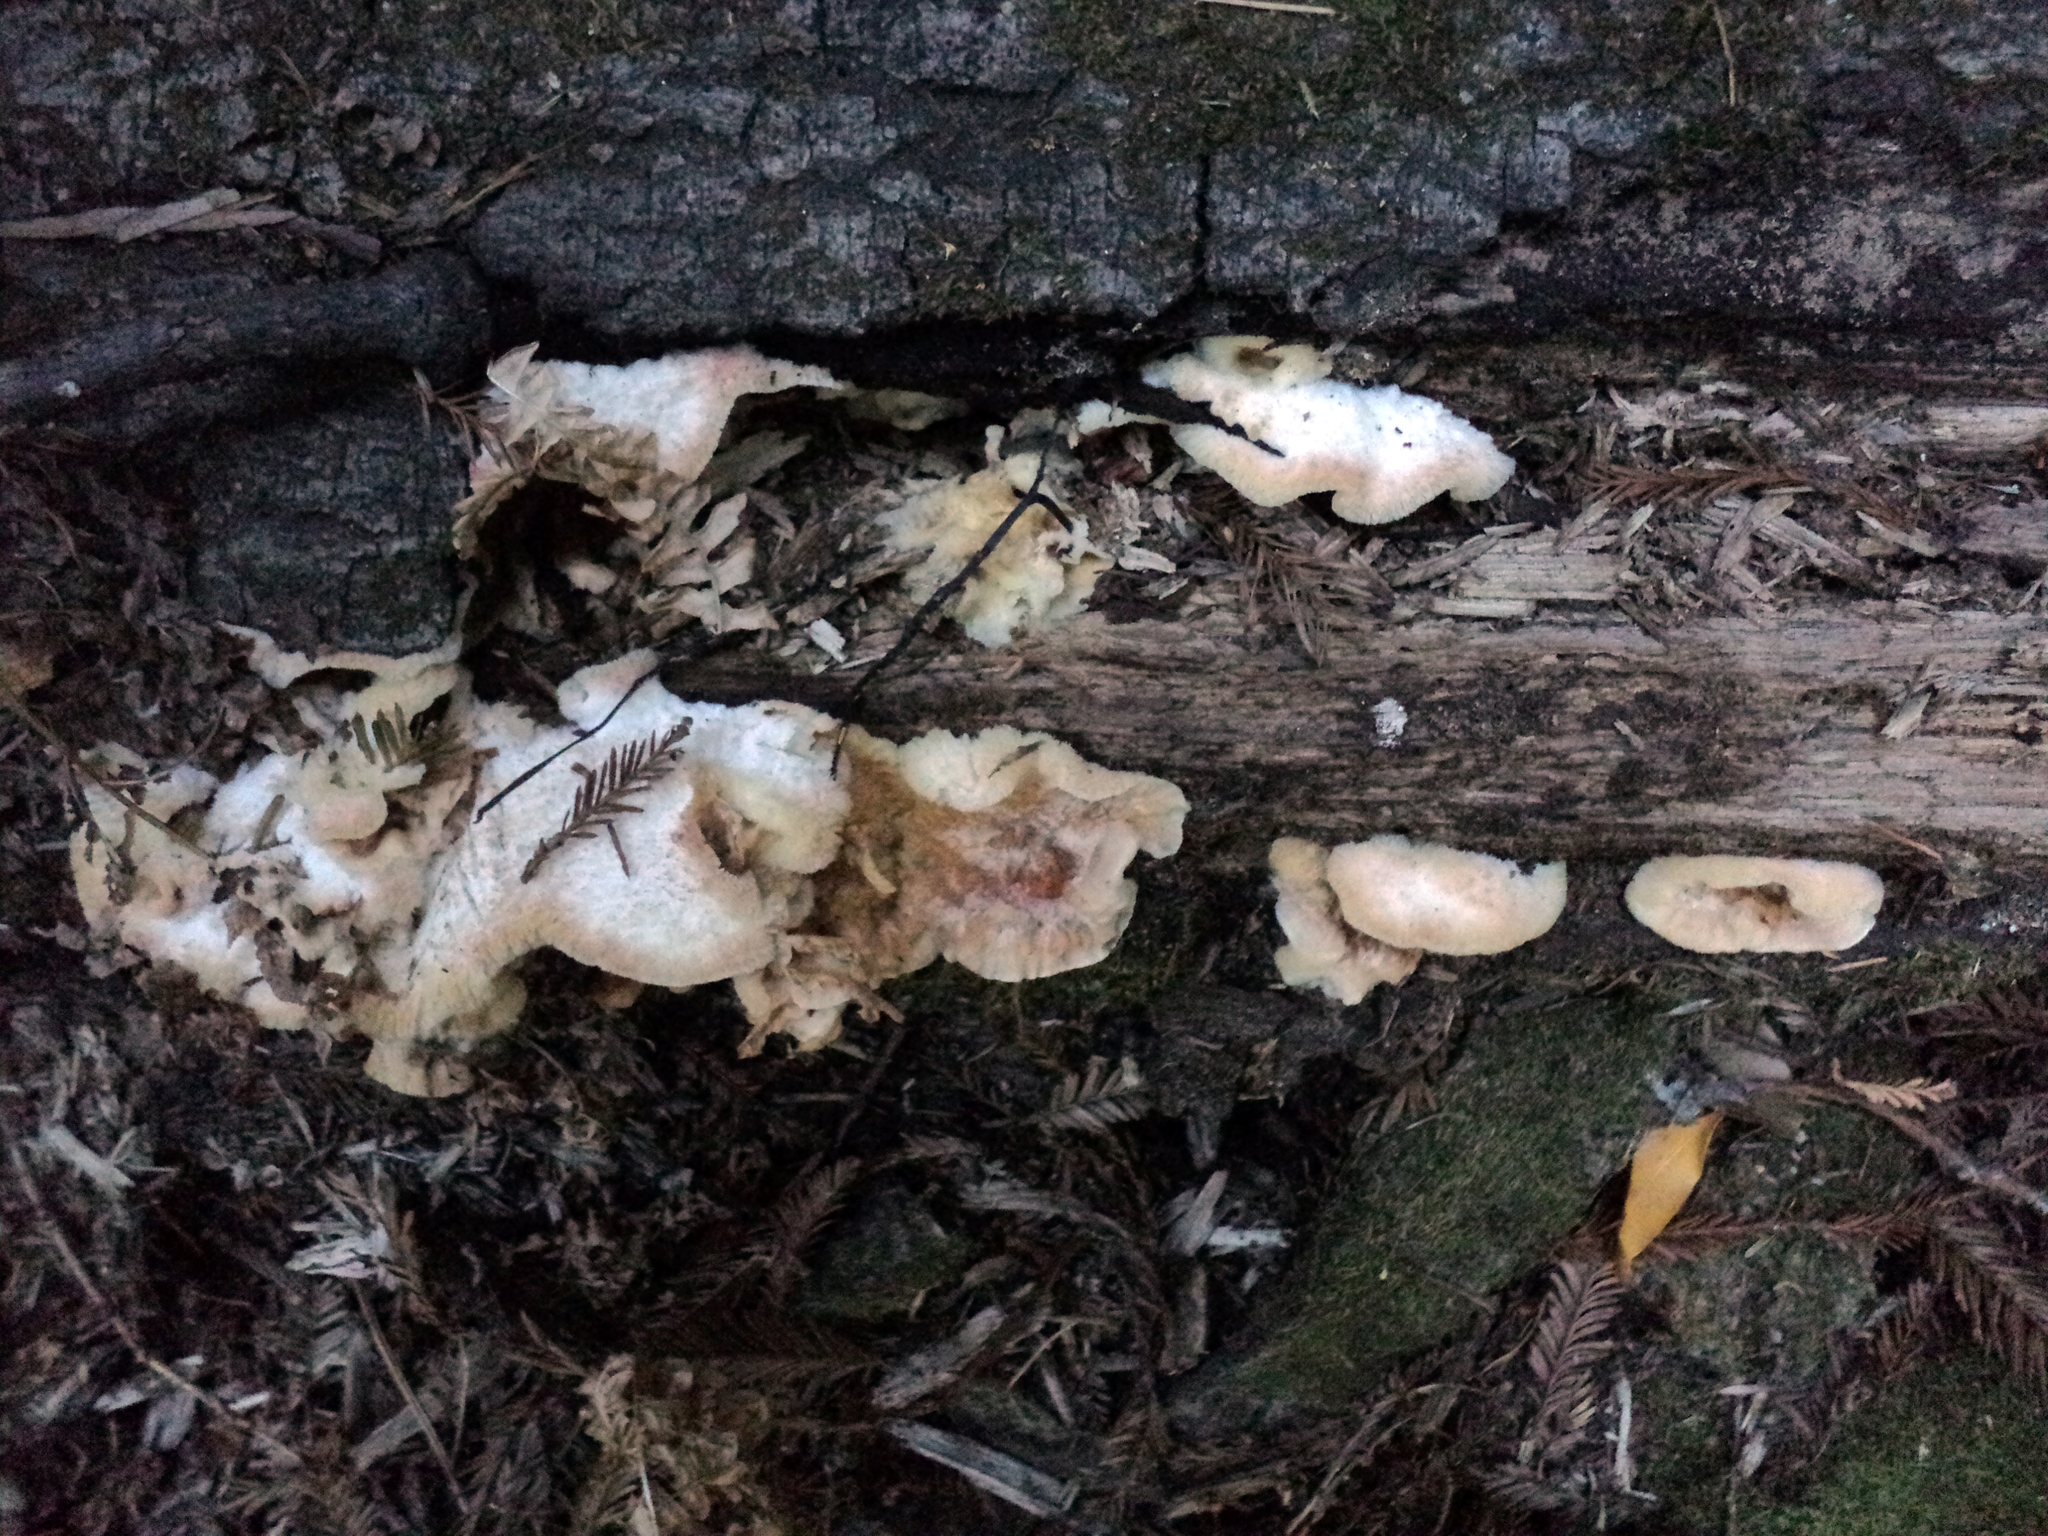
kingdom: Fungi
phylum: Basidiomycota
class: Agaricomycetes
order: Polyporales
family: Meruliaceae
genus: Phlebia
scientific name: Phlebia tremellosa
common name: Jelly rot
